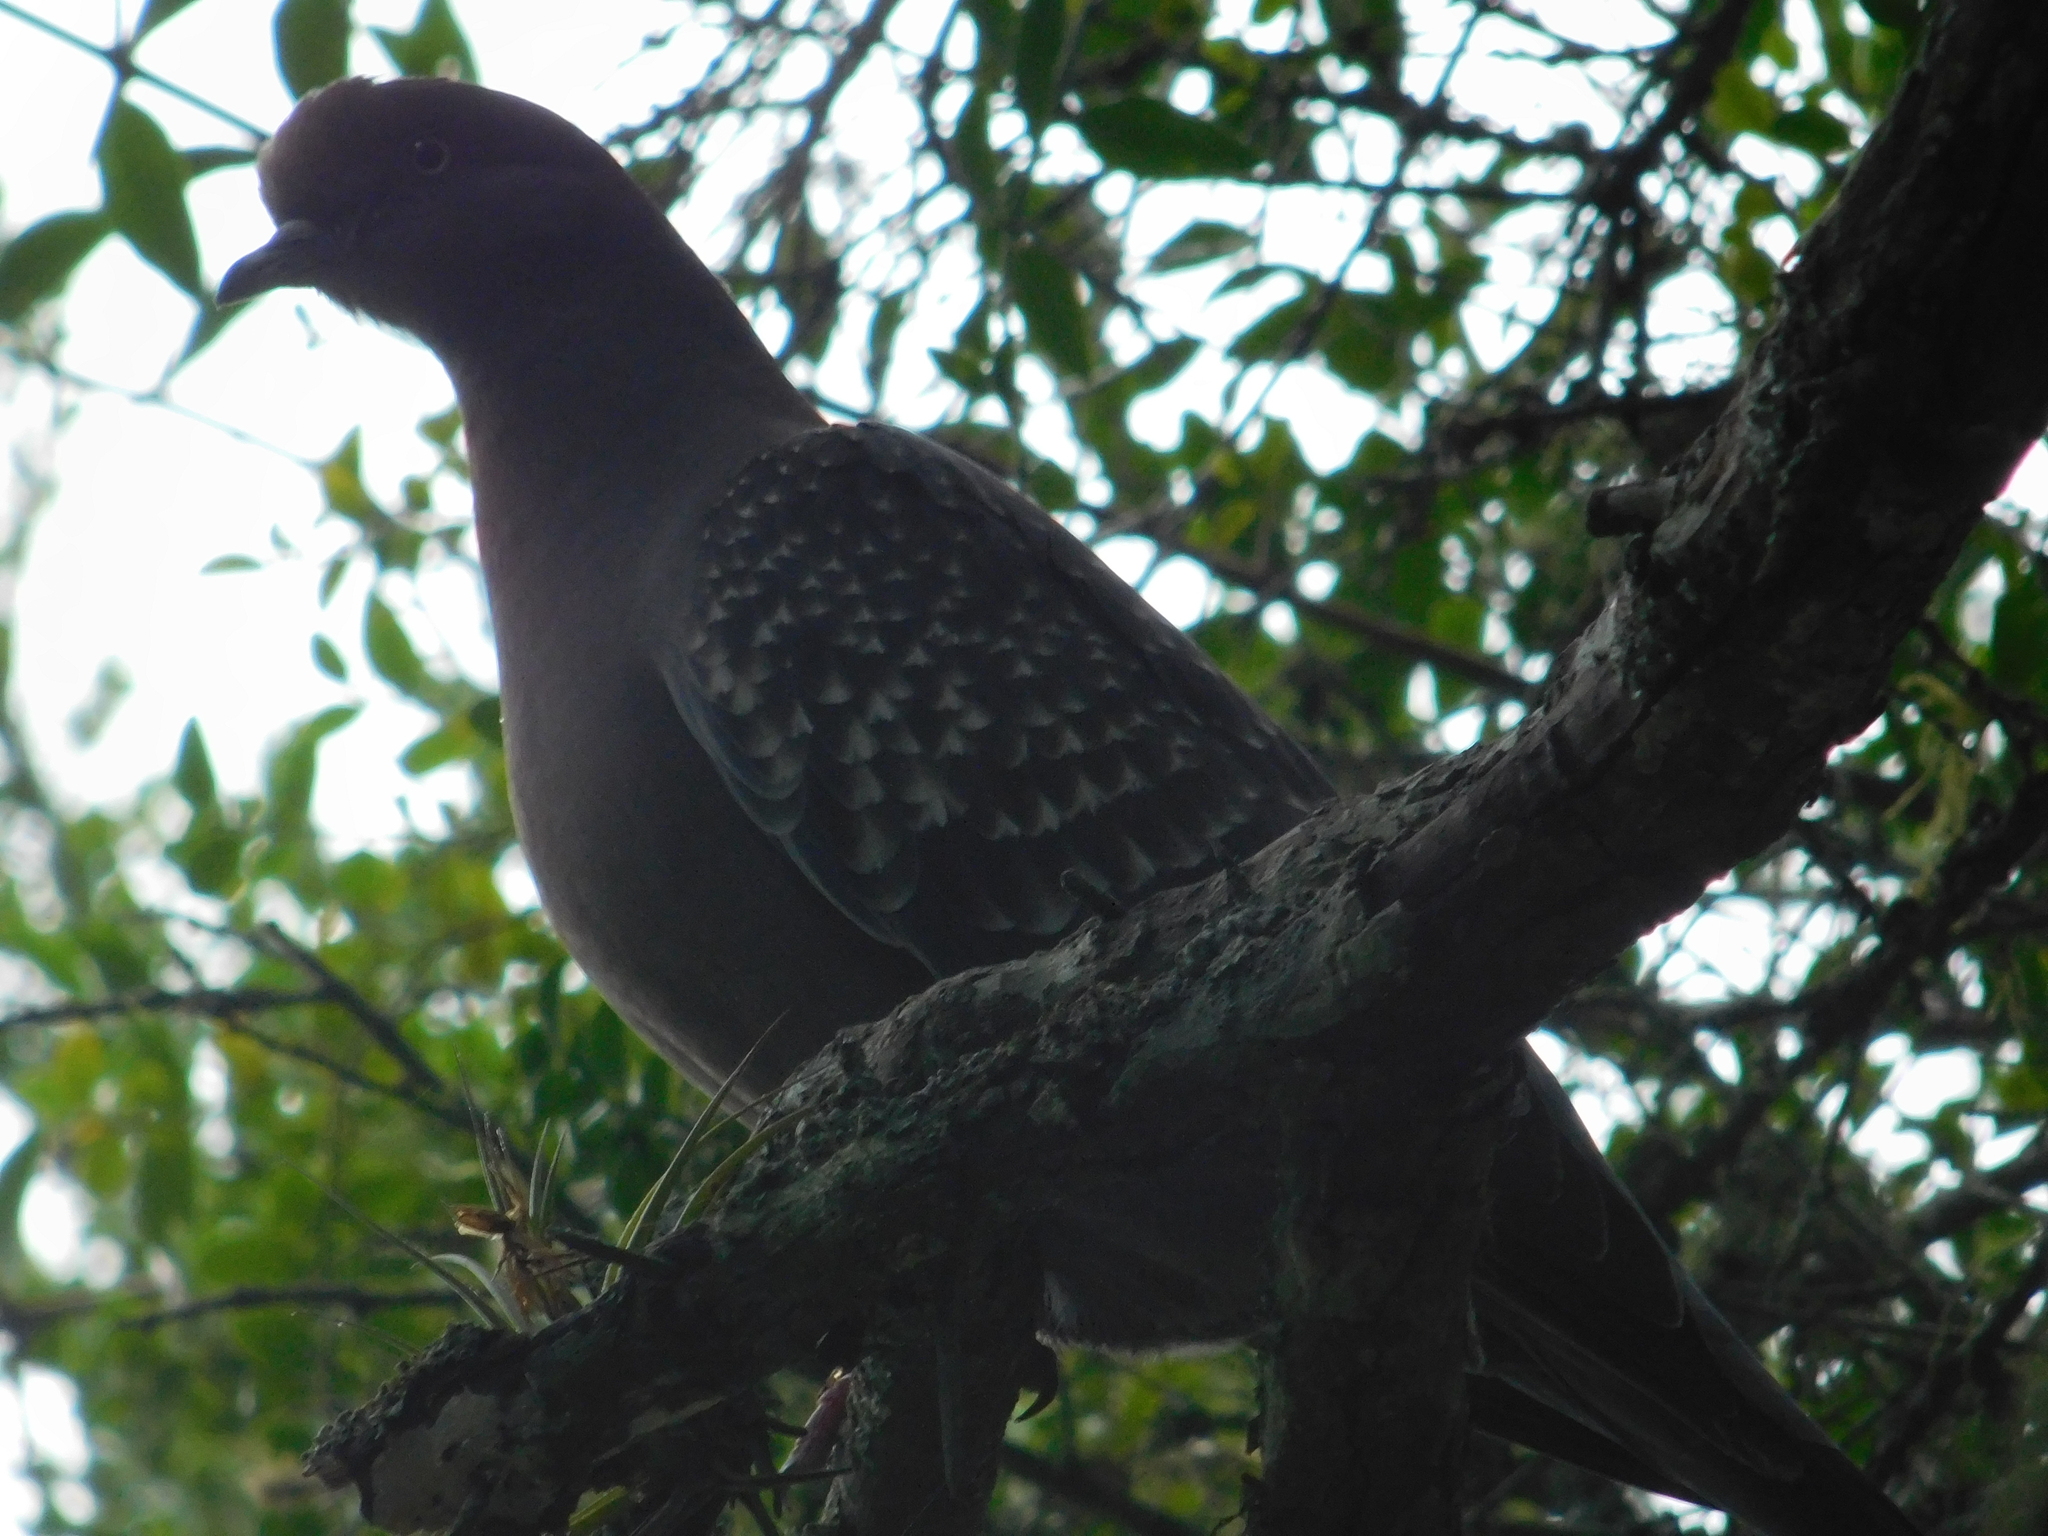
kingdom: Animalia
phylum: Chordata
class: Aves
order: Columbiformes
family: Columbidae
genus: Patagioenas
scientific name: Patagioenas maculosa
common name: Spot-winged pigeon
